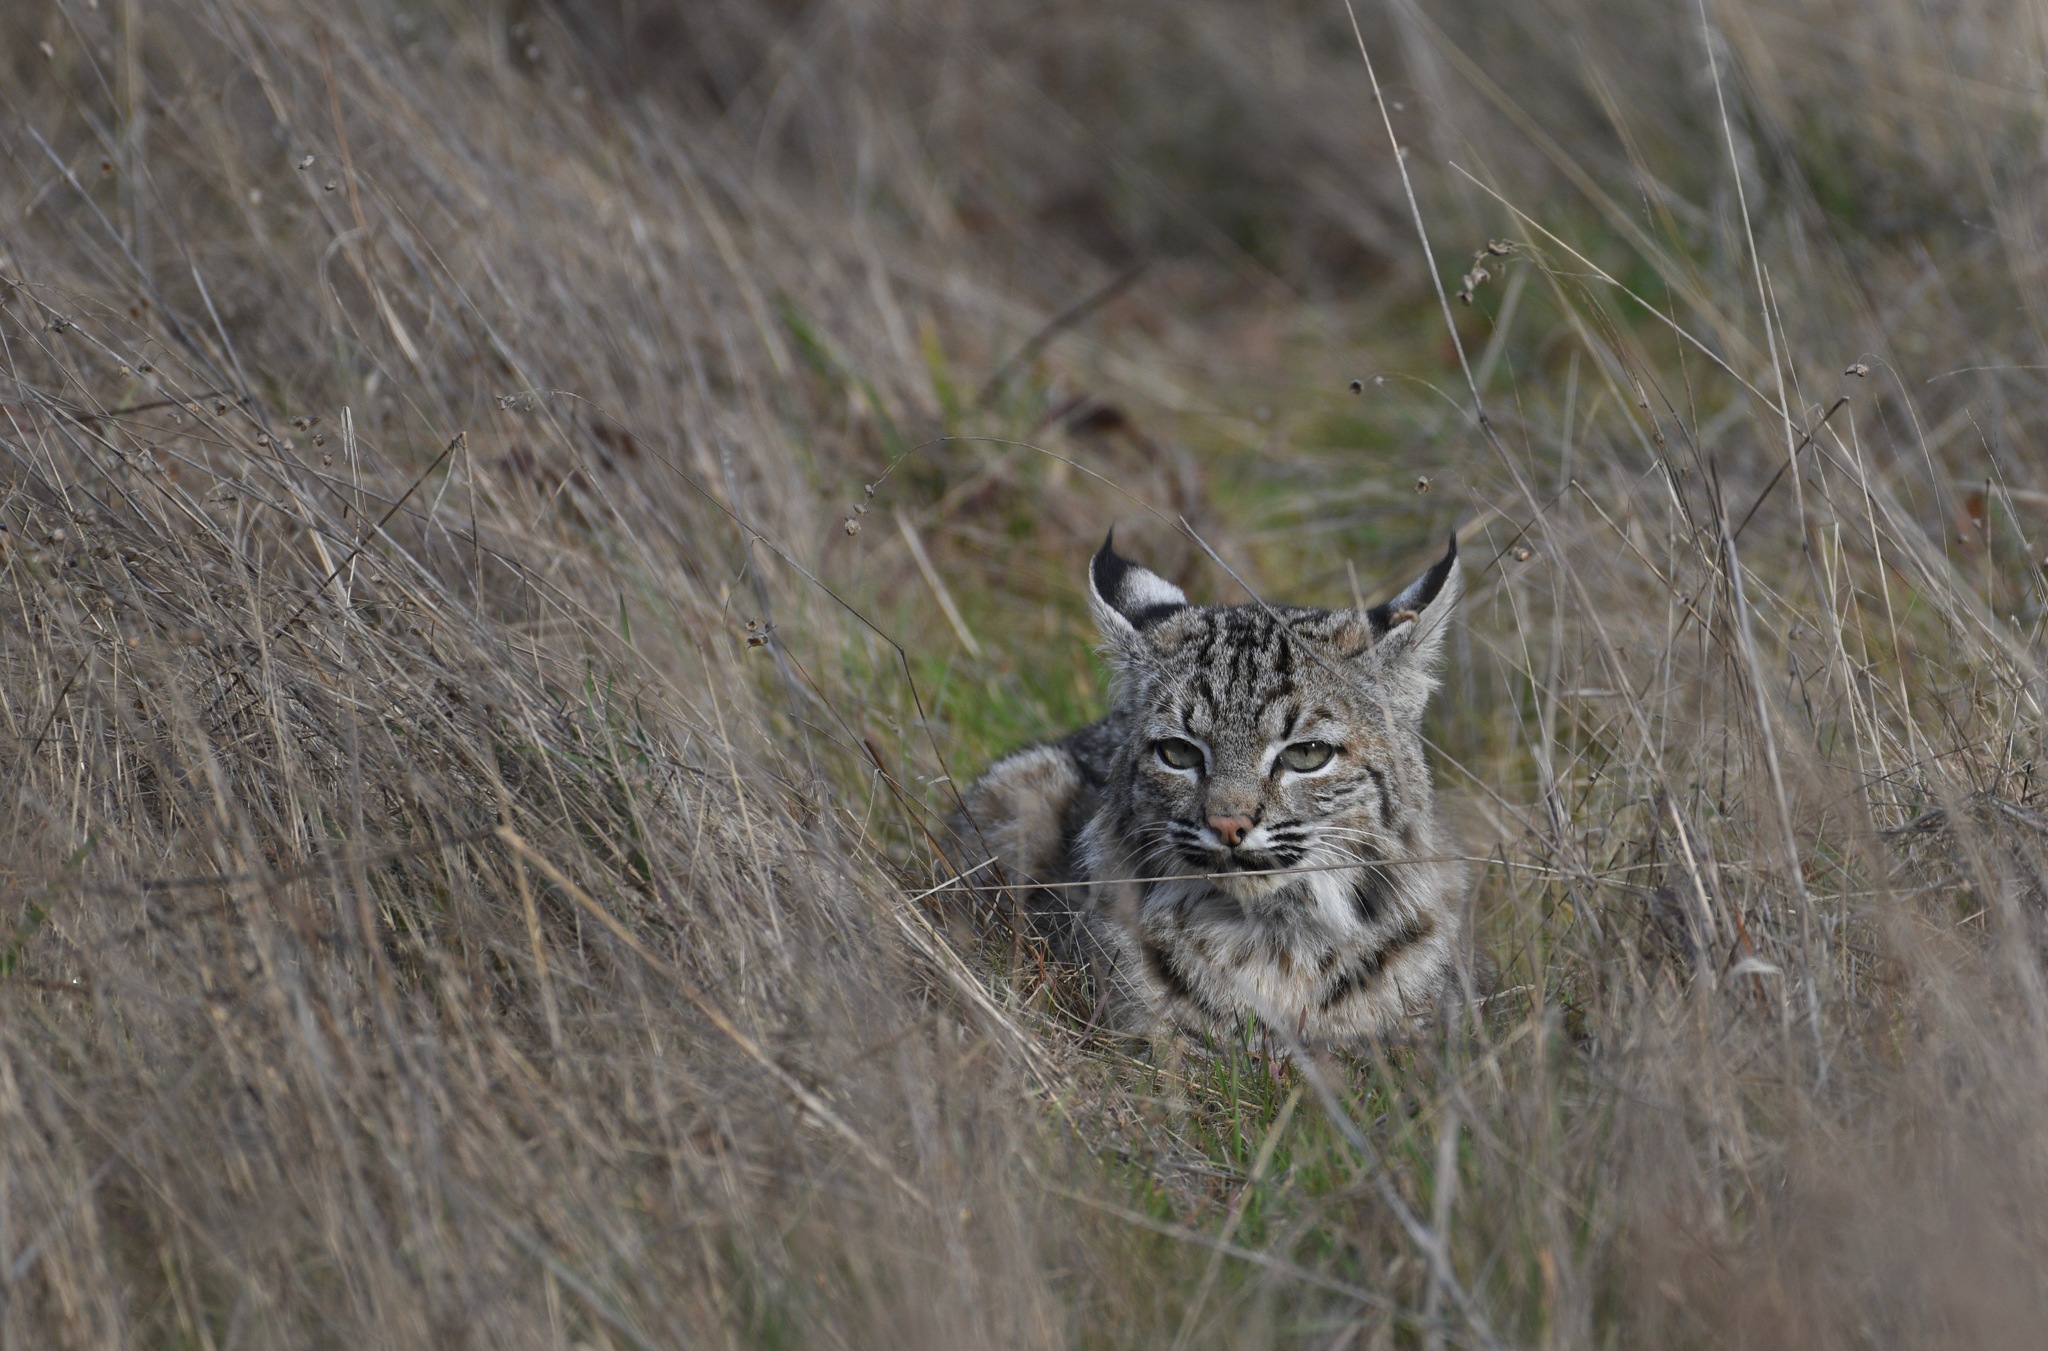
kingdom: Animalia
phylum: Chordata
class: Mammalia
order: Carnivora
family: Felidae
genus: Lynx
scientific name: Lynx rufus
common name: Bobcat
